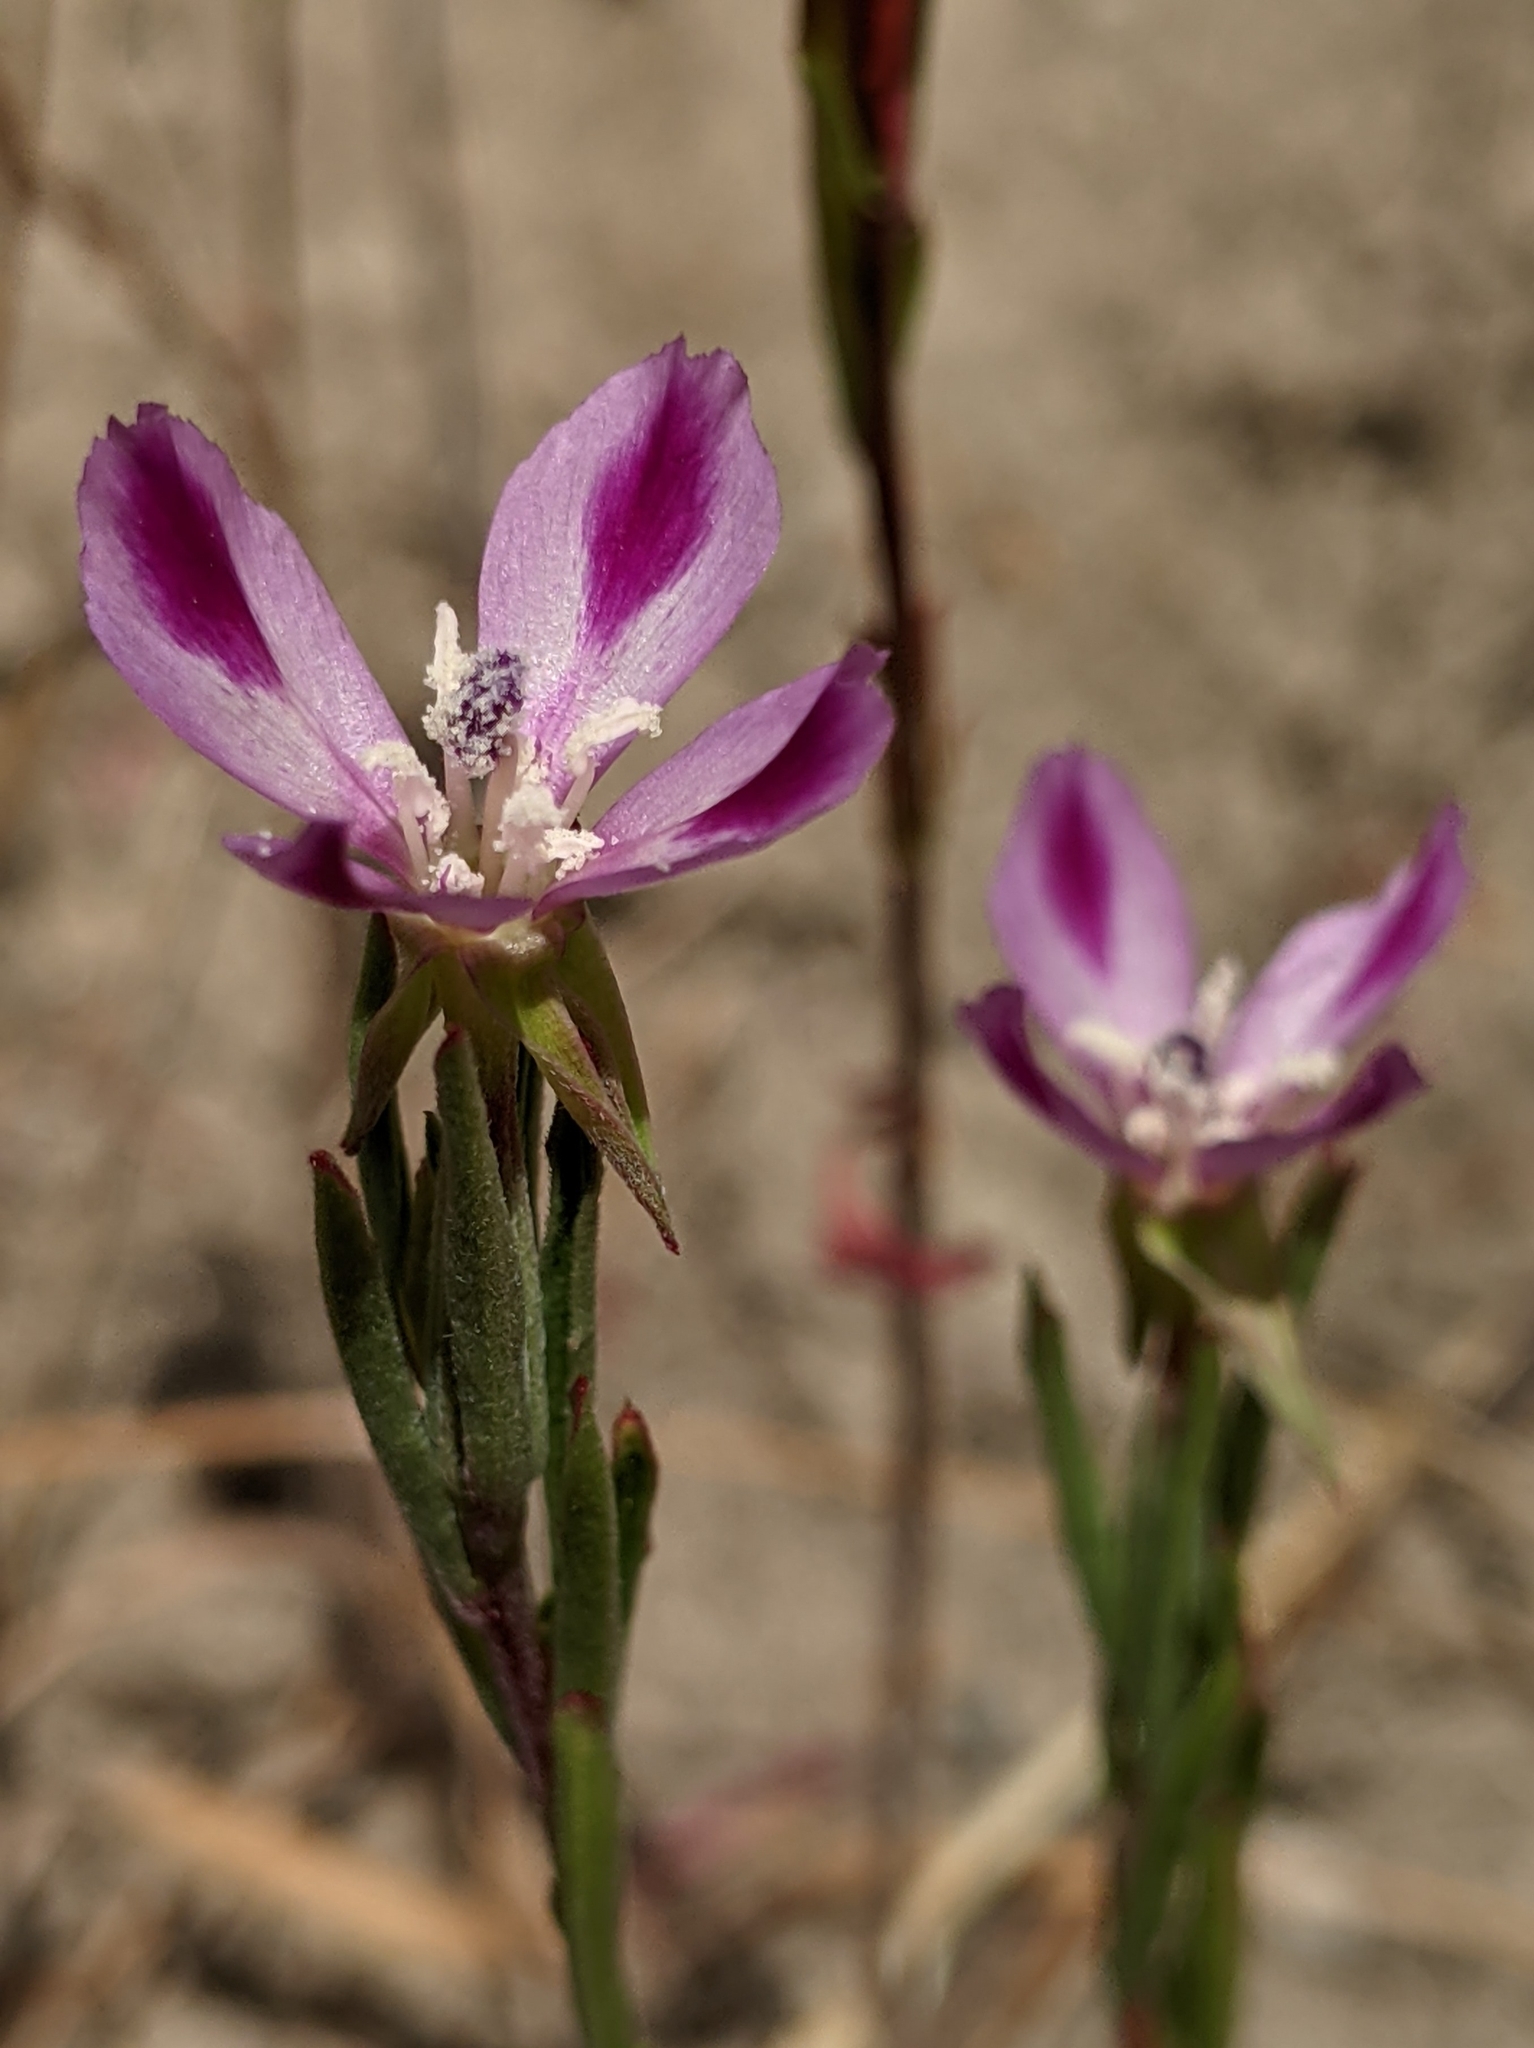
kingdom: Plantae
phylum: Tracheophyta
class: Magnoliopsida
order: Myrtales
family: Onagraceae
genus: Clarkia
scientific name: Clarkia purpurea
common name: Purple clarkia
